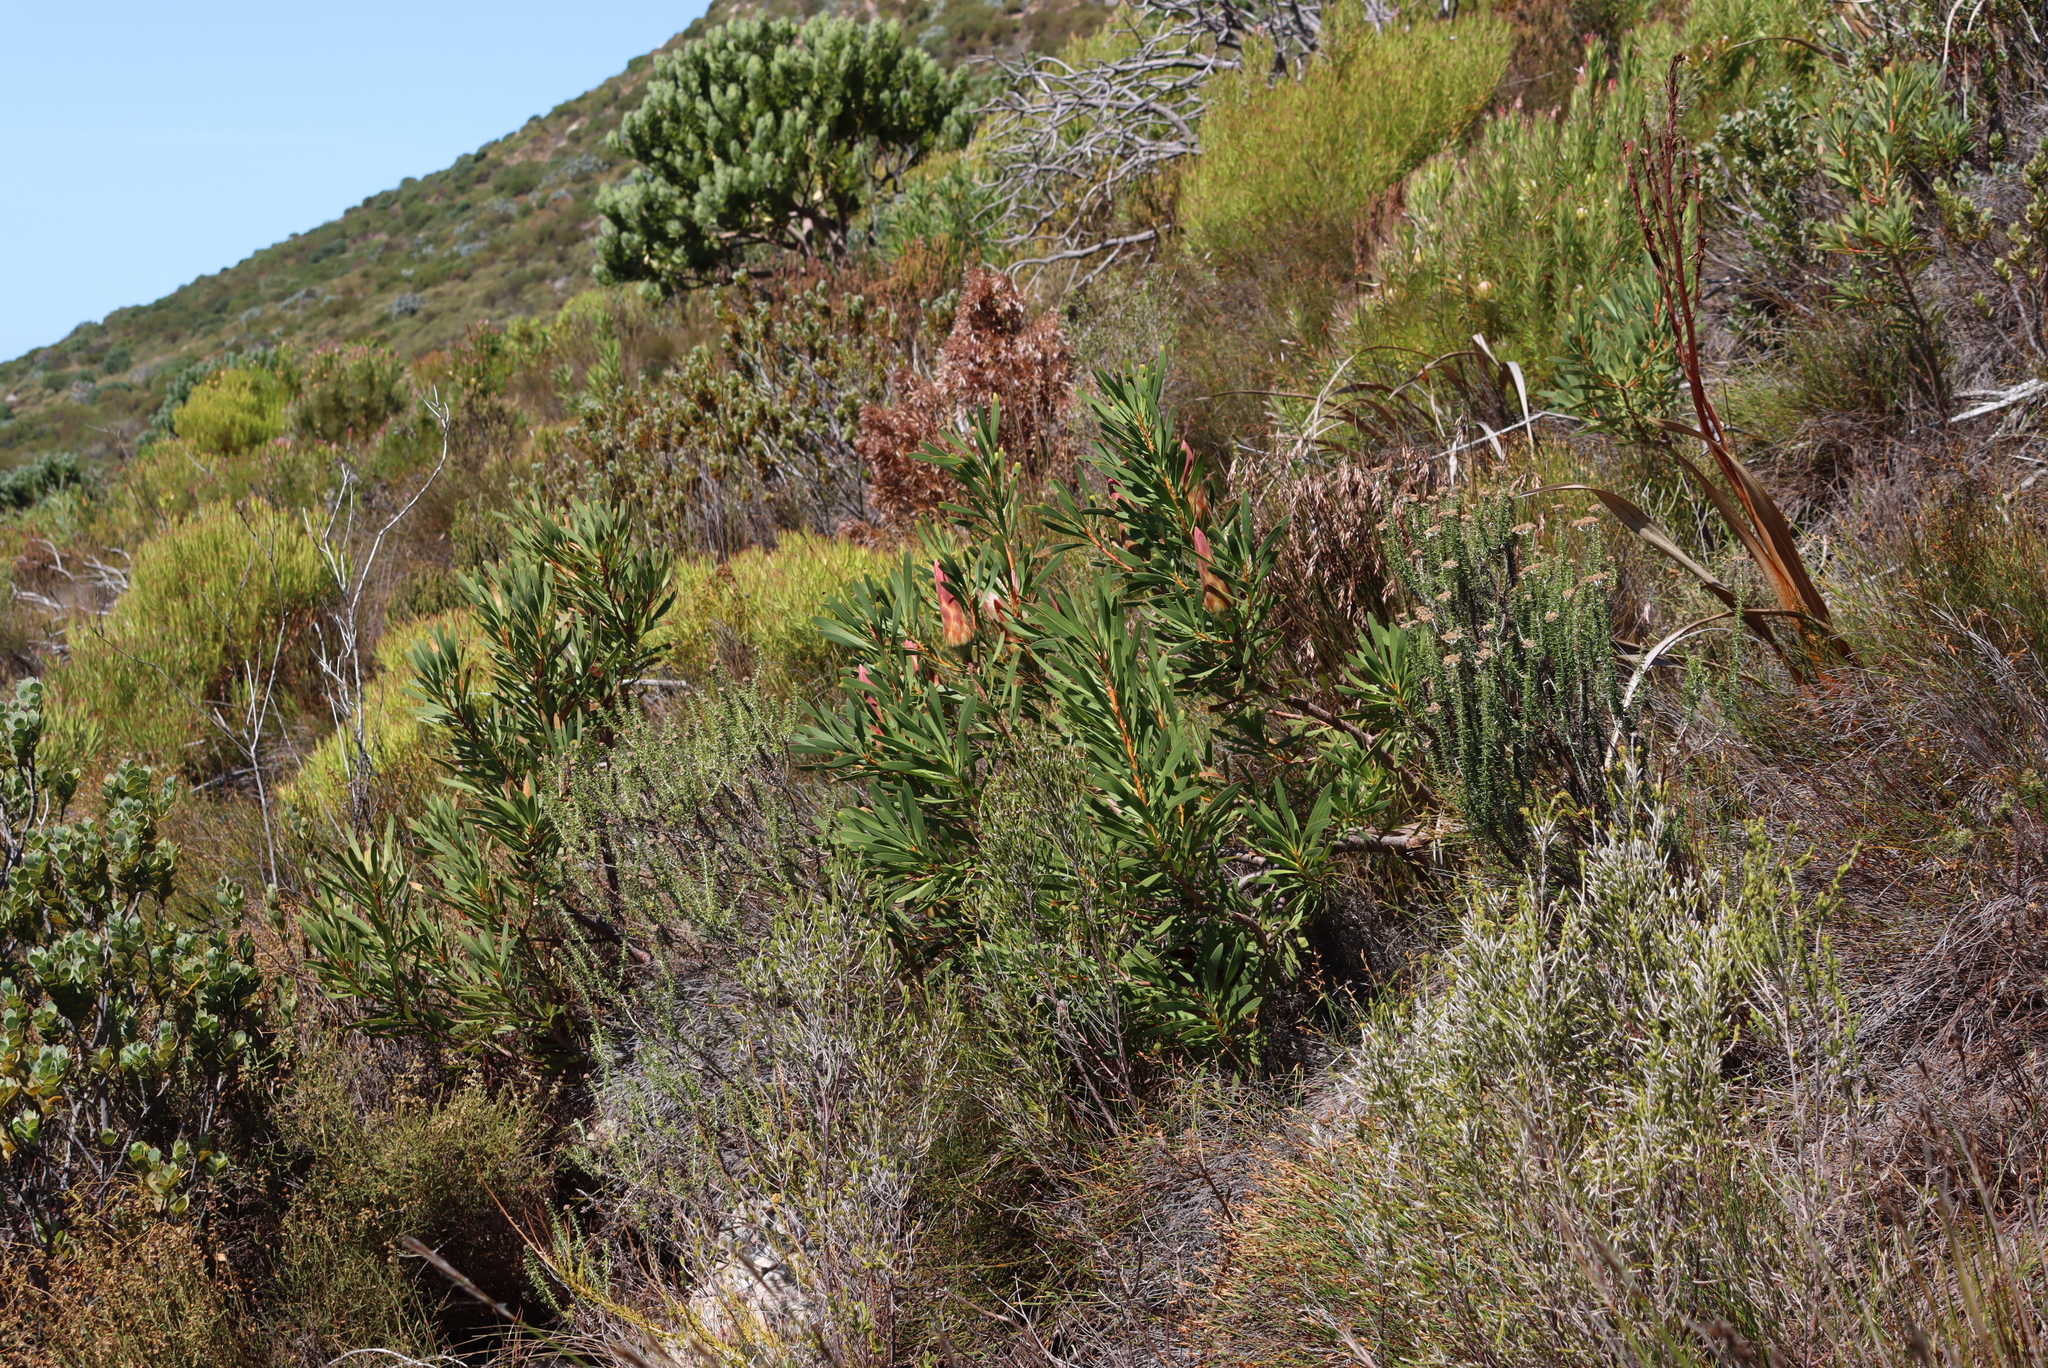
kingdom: Plantae
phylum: Tracheophyta
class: Magnoliopsida
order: Proteales
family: Proteaceae
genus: Protea
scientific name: Protea repens
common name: Sugarbush
